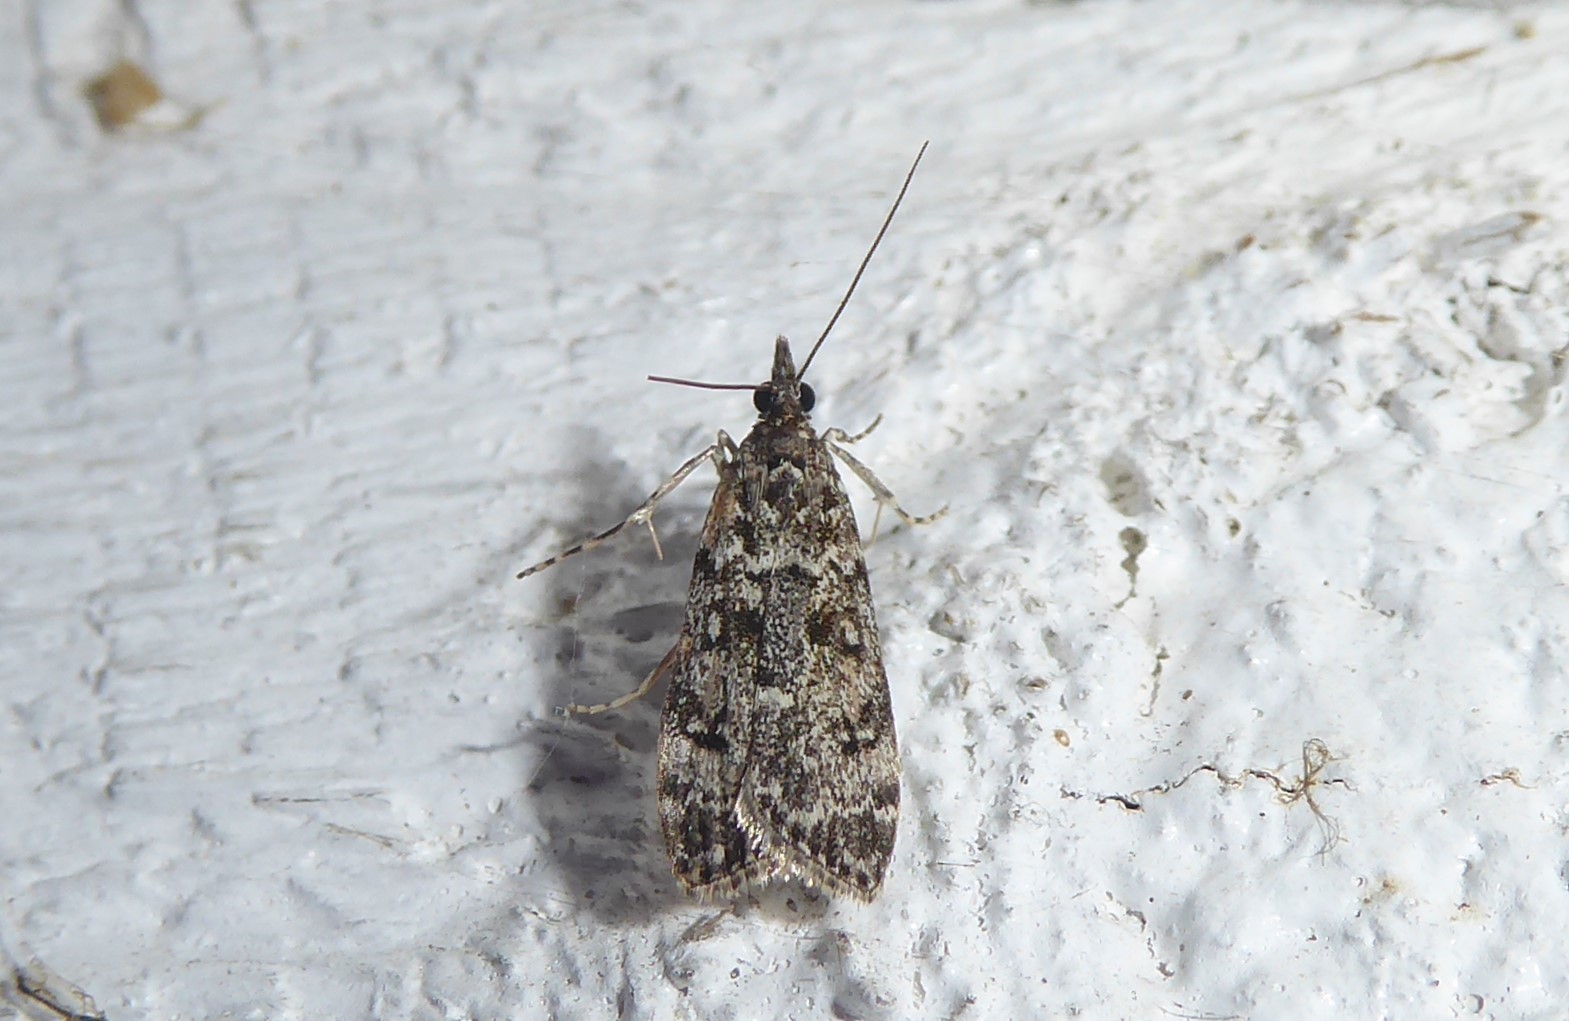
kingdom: Animalia
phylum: Arthropoda
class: Insecta
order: Lepidoptera
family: Crambidae
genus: Eudonia
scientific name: Eudonia philerga
